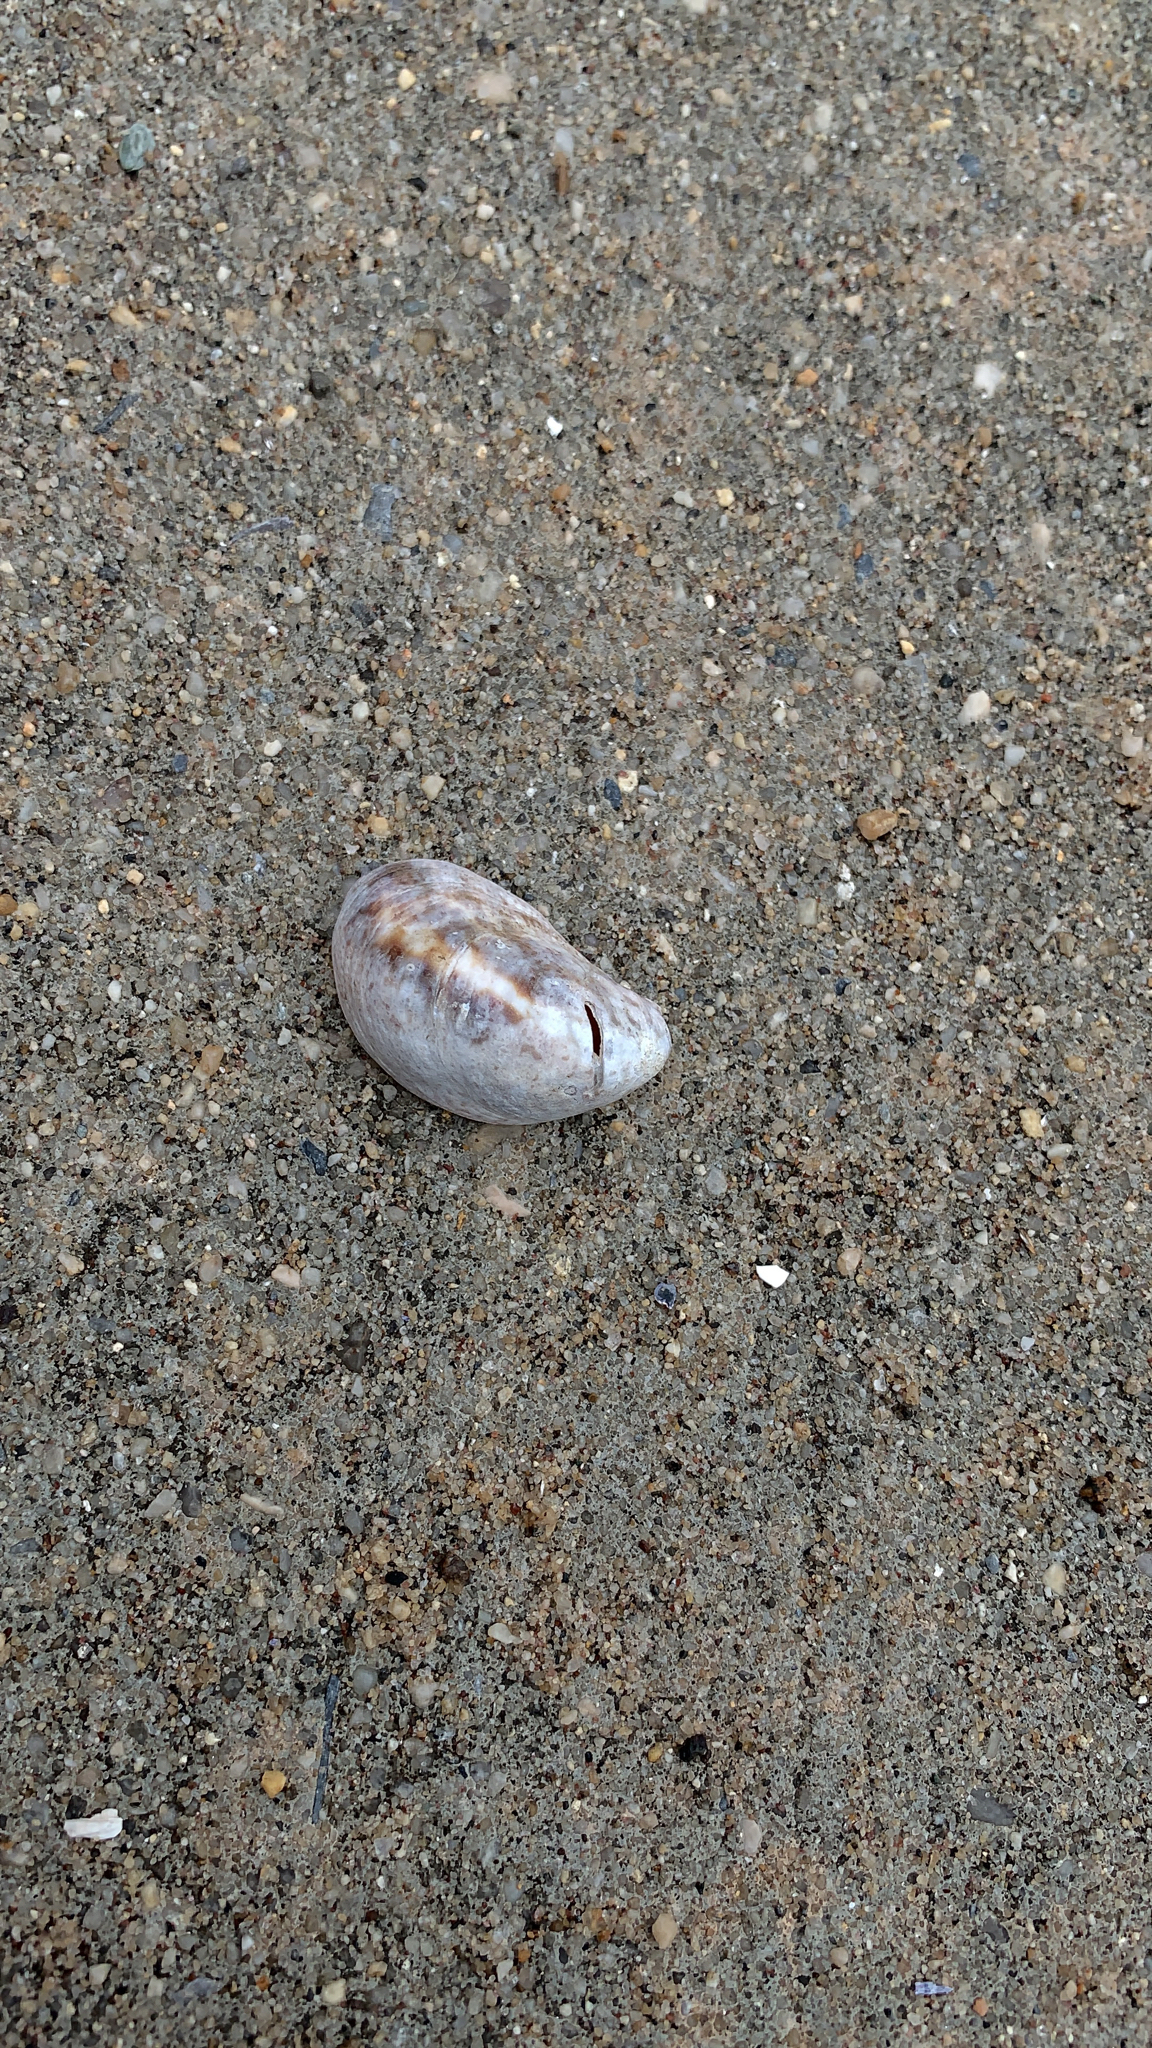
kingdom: Animalia
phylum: Mollusca
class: Gastropoda
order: Littorinimorpha
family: Calyptraeidae
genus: Crepidula
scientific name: Crepidula fornicata
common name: Slipper limpet
